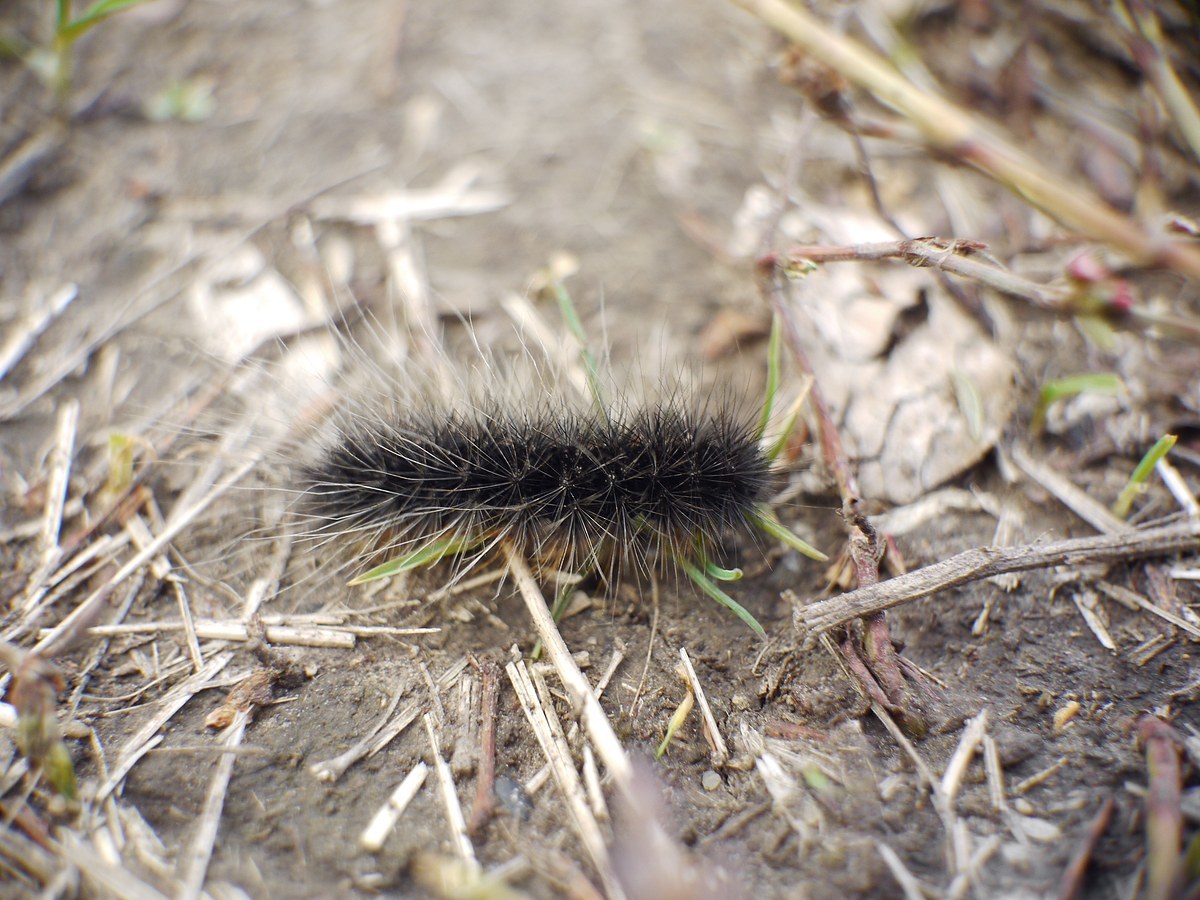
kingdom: Animalia
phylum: Arthropoda
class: Insecta
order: Lepidoptera
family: Erebidae
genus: Eucharia
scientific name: Eucharia festiva
